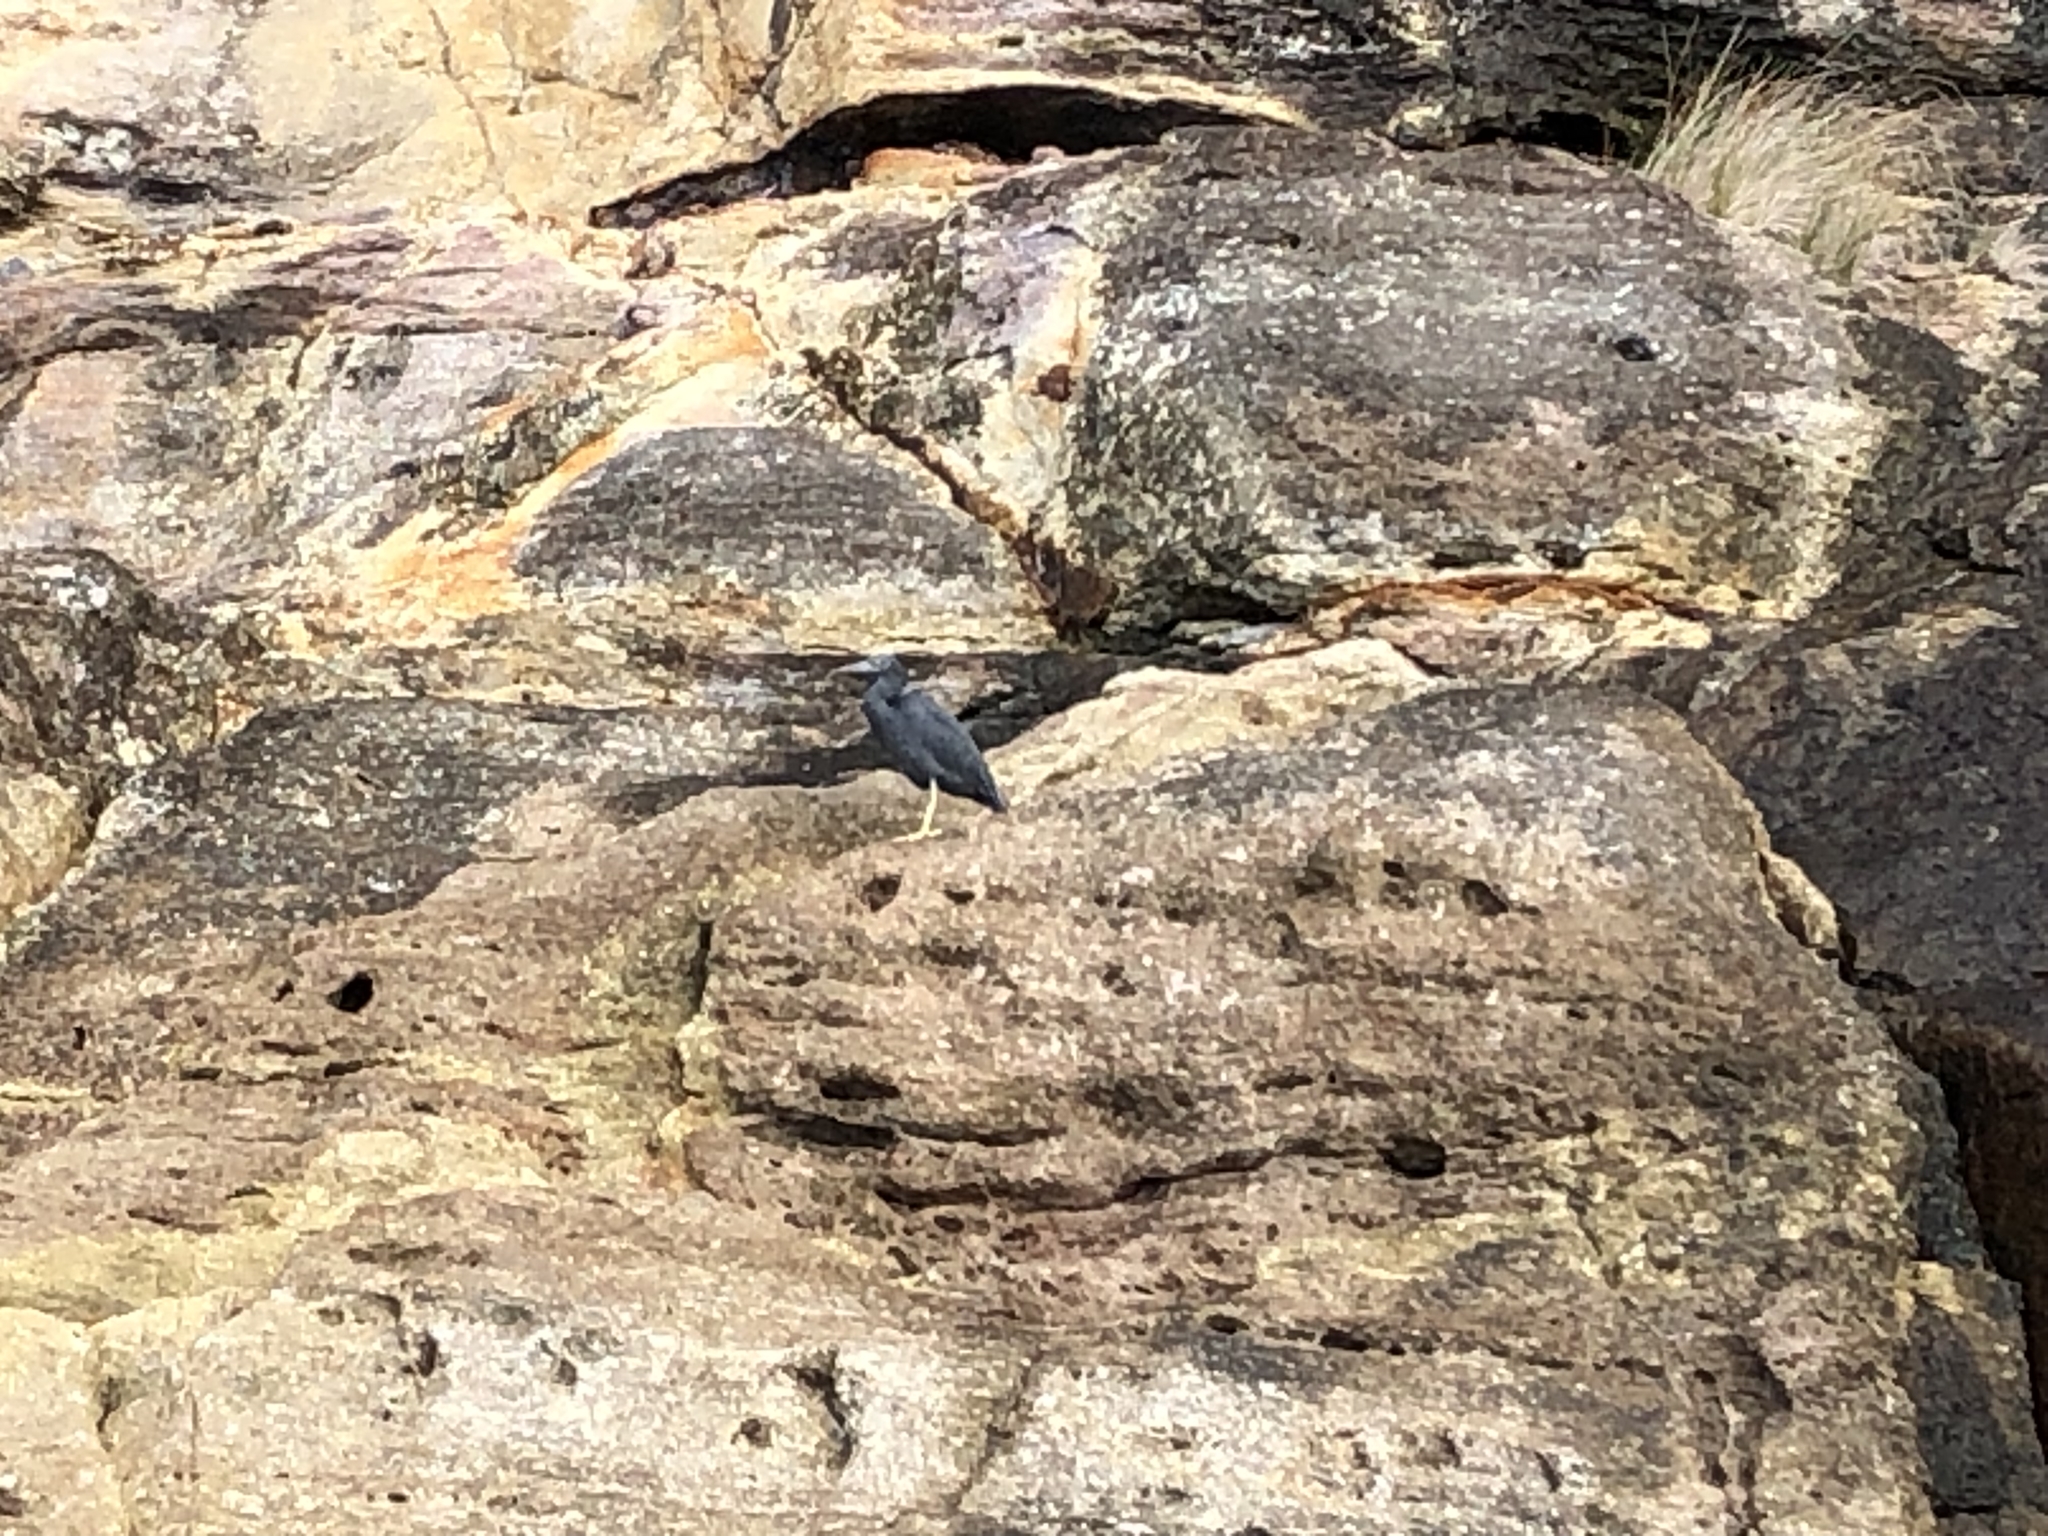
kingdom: Animalia
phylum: Chordata
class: Aves
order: Pelecaniformes
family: Ardeidae
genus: Egretta
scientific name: Egretta sacra
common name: Pacific reef heron
